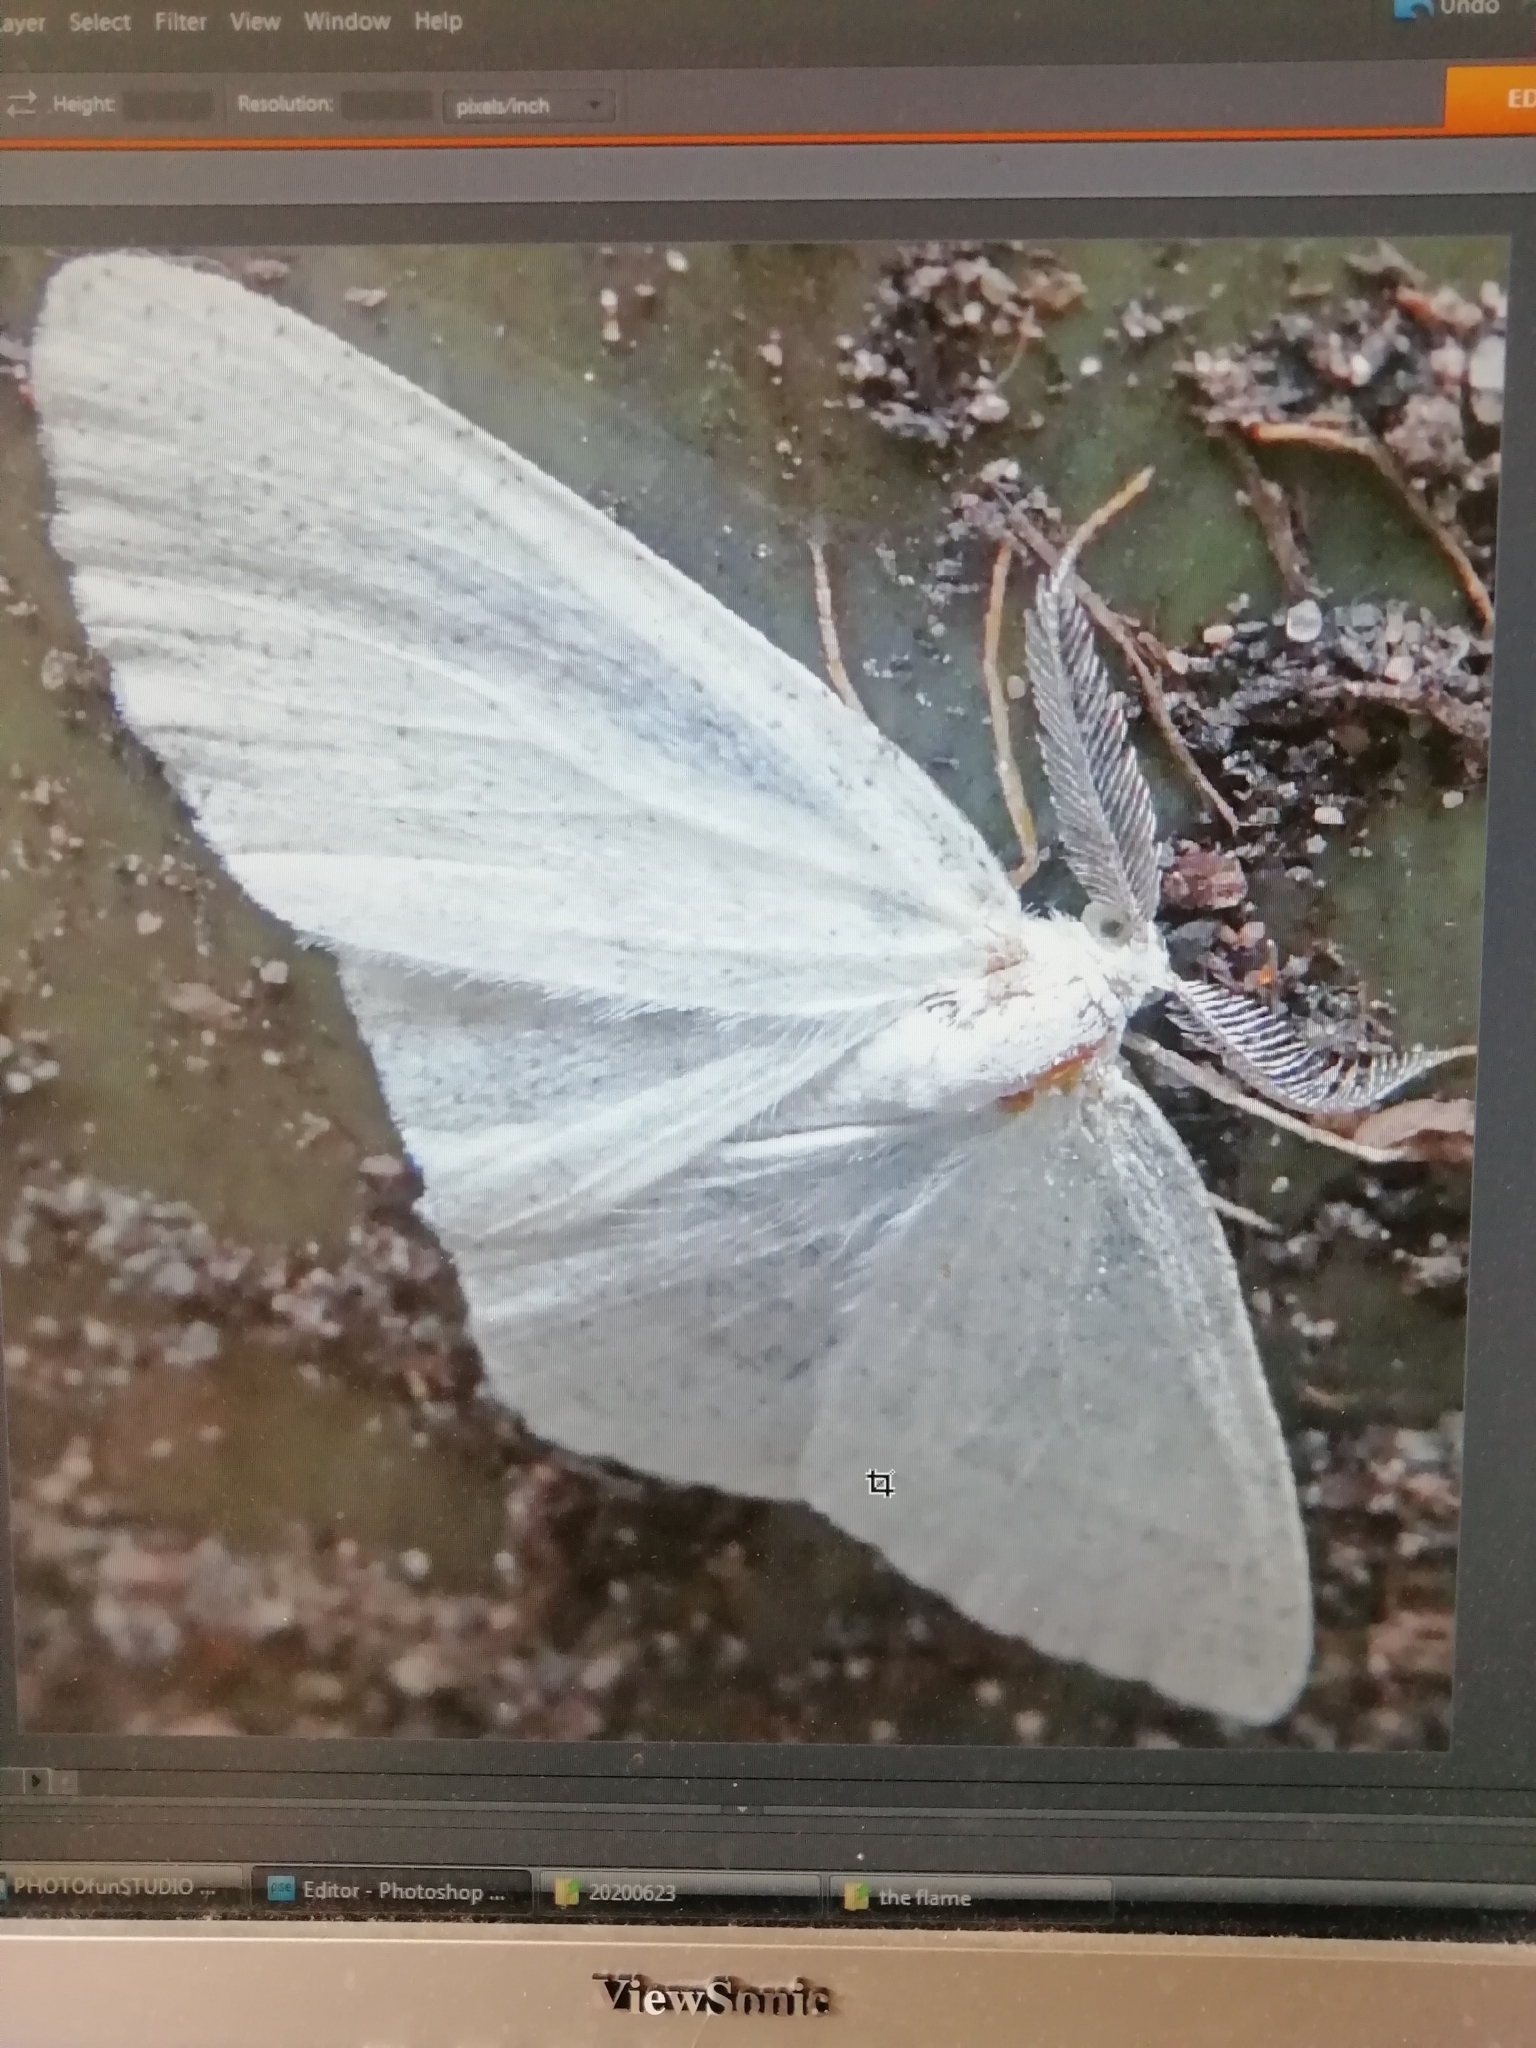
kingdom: Animalia
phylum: Arthropoda
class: Insecta
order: Lepidoptera
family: Geometridae
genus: Cabera
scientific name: Cabera pusaria
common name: Common white wave
